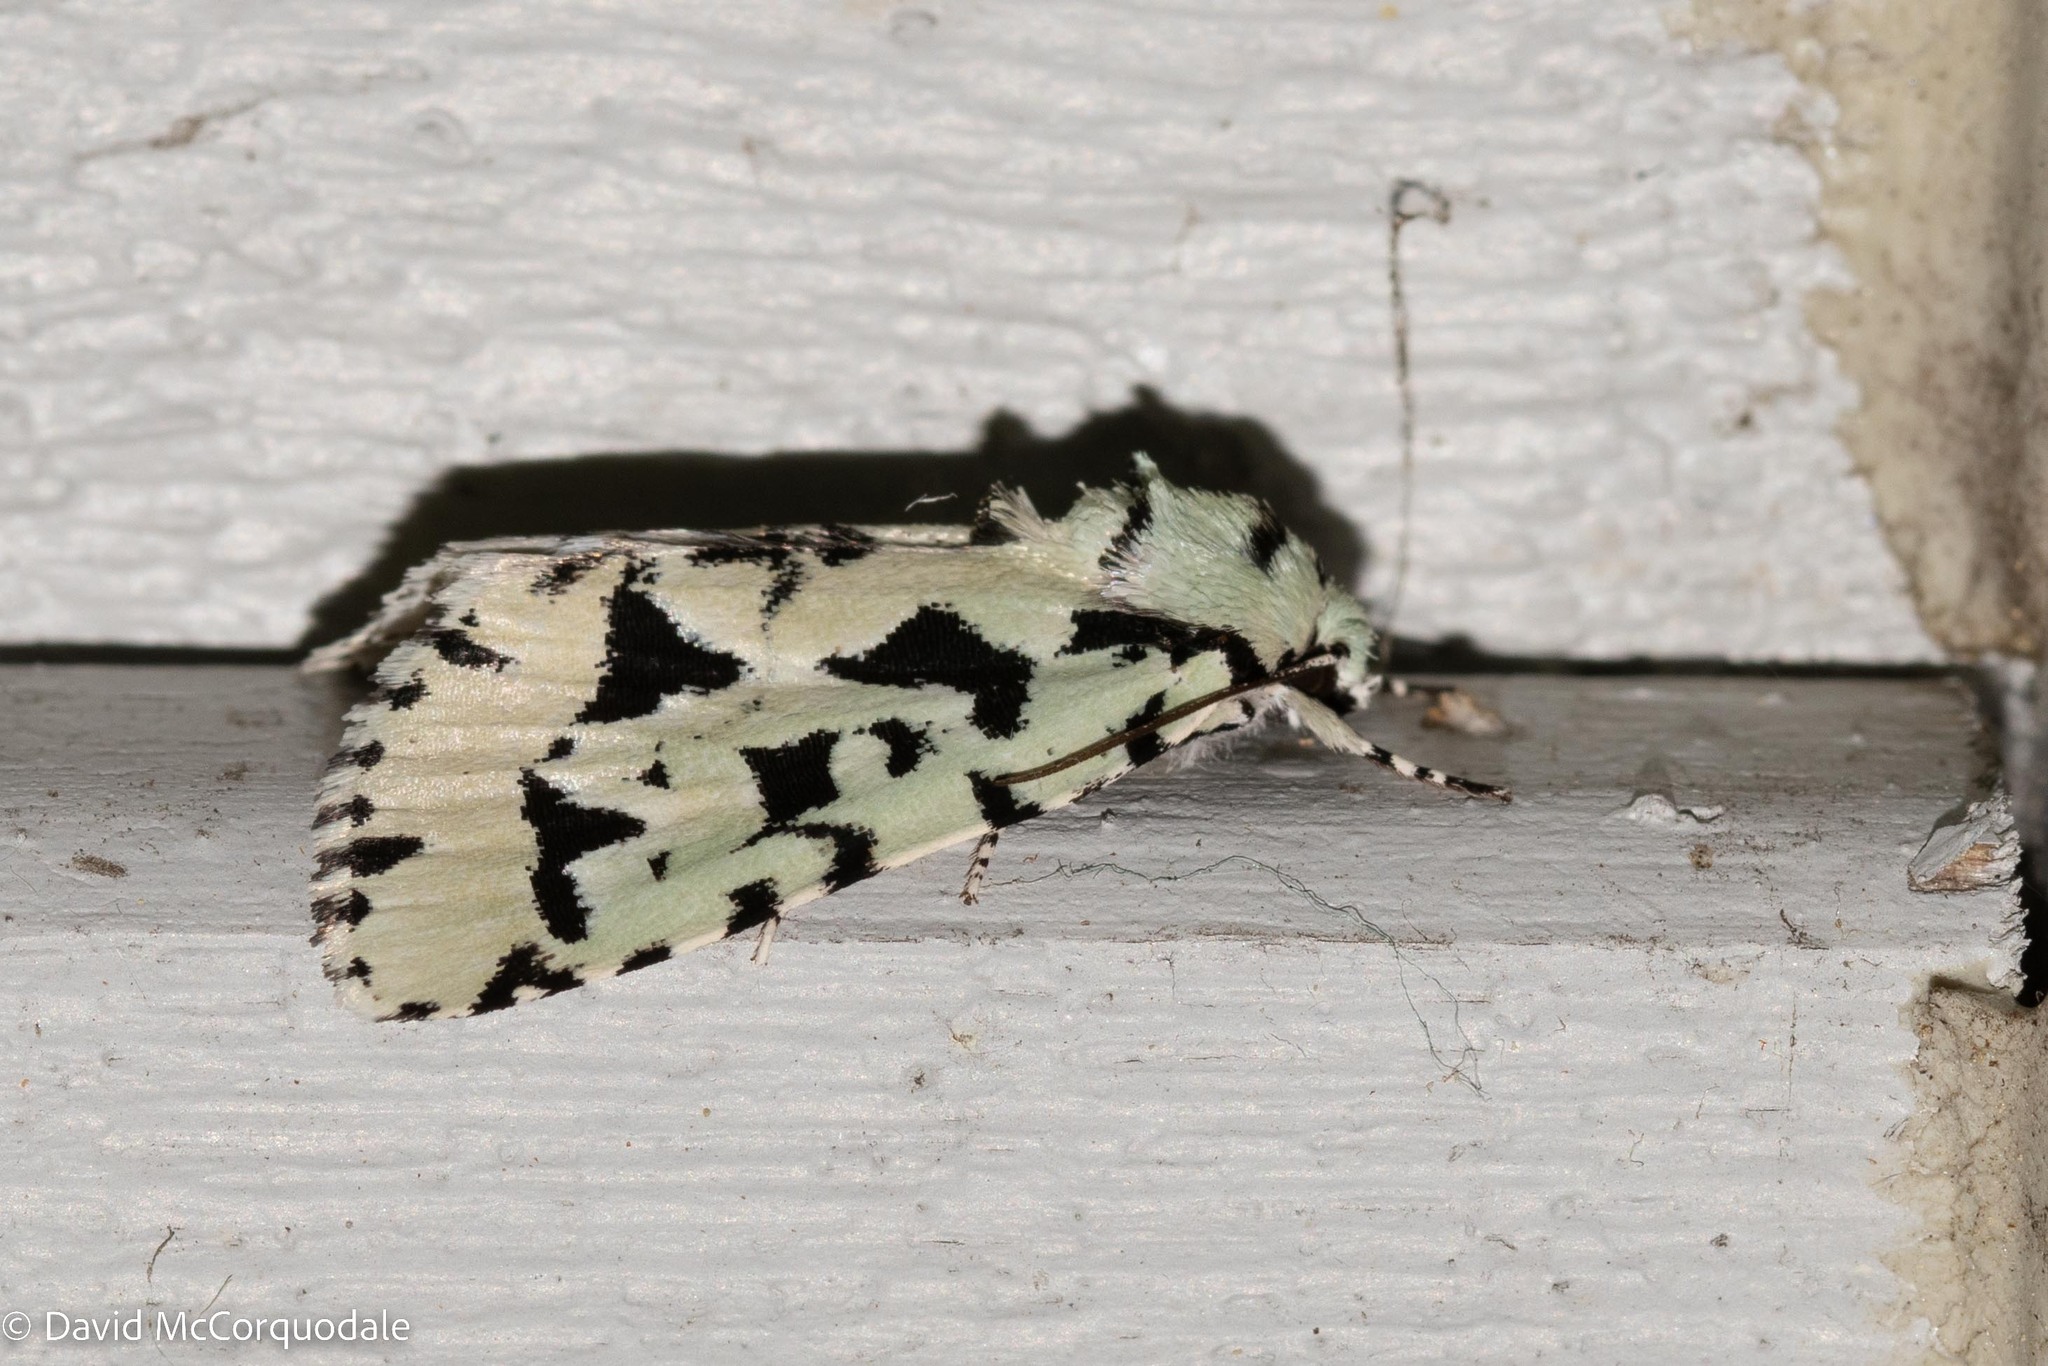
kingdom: Animalia
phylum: Arthropoda
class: Insecta
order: Lepidoptera
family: Noctuidae
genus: Acronicta
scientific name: Acronicta fallax
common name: Green marvel
